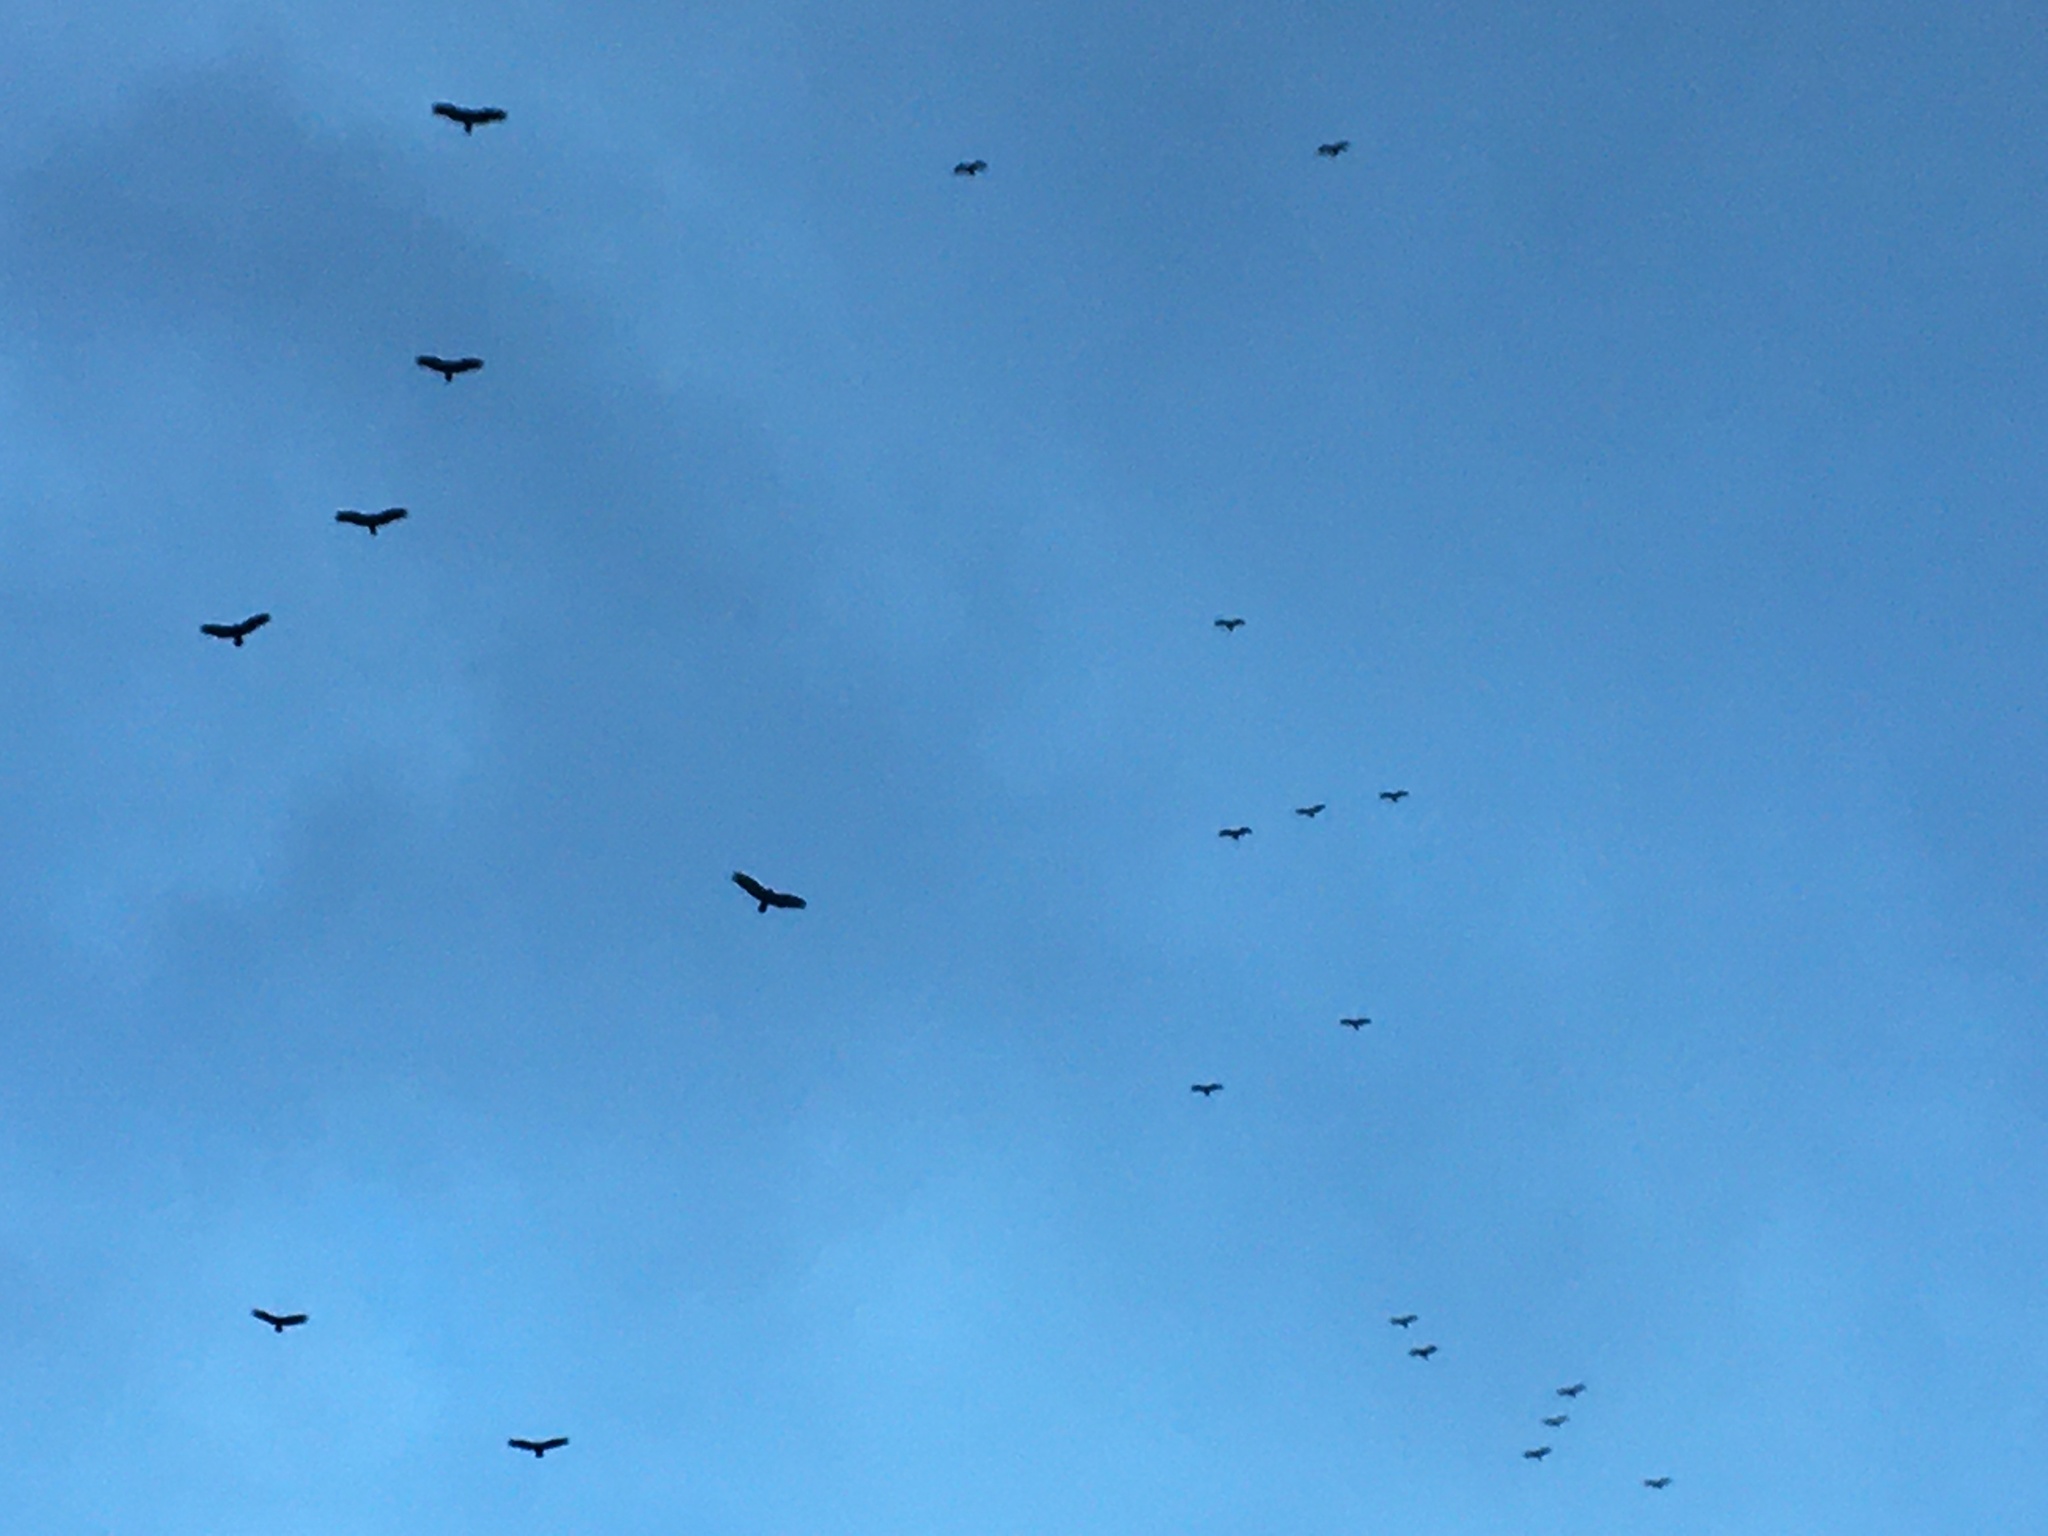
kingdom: Animalia
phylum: Chordata
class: Aves
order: Accipitriformes
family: Cathartidae
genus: Cathartes
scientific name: Cathartes aura
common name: Turkey vulture
